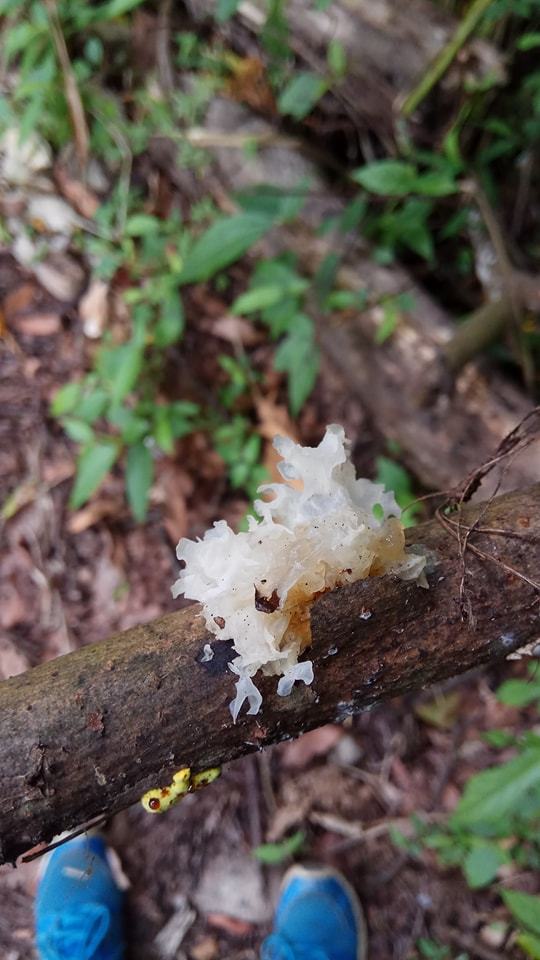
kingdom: Fungi
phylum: Basidiomycota
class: Tremellomycetes
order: Tremellales
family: Tremellaceae
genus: Tremella
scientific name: Tremella fuciformis
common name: Snow fungus
